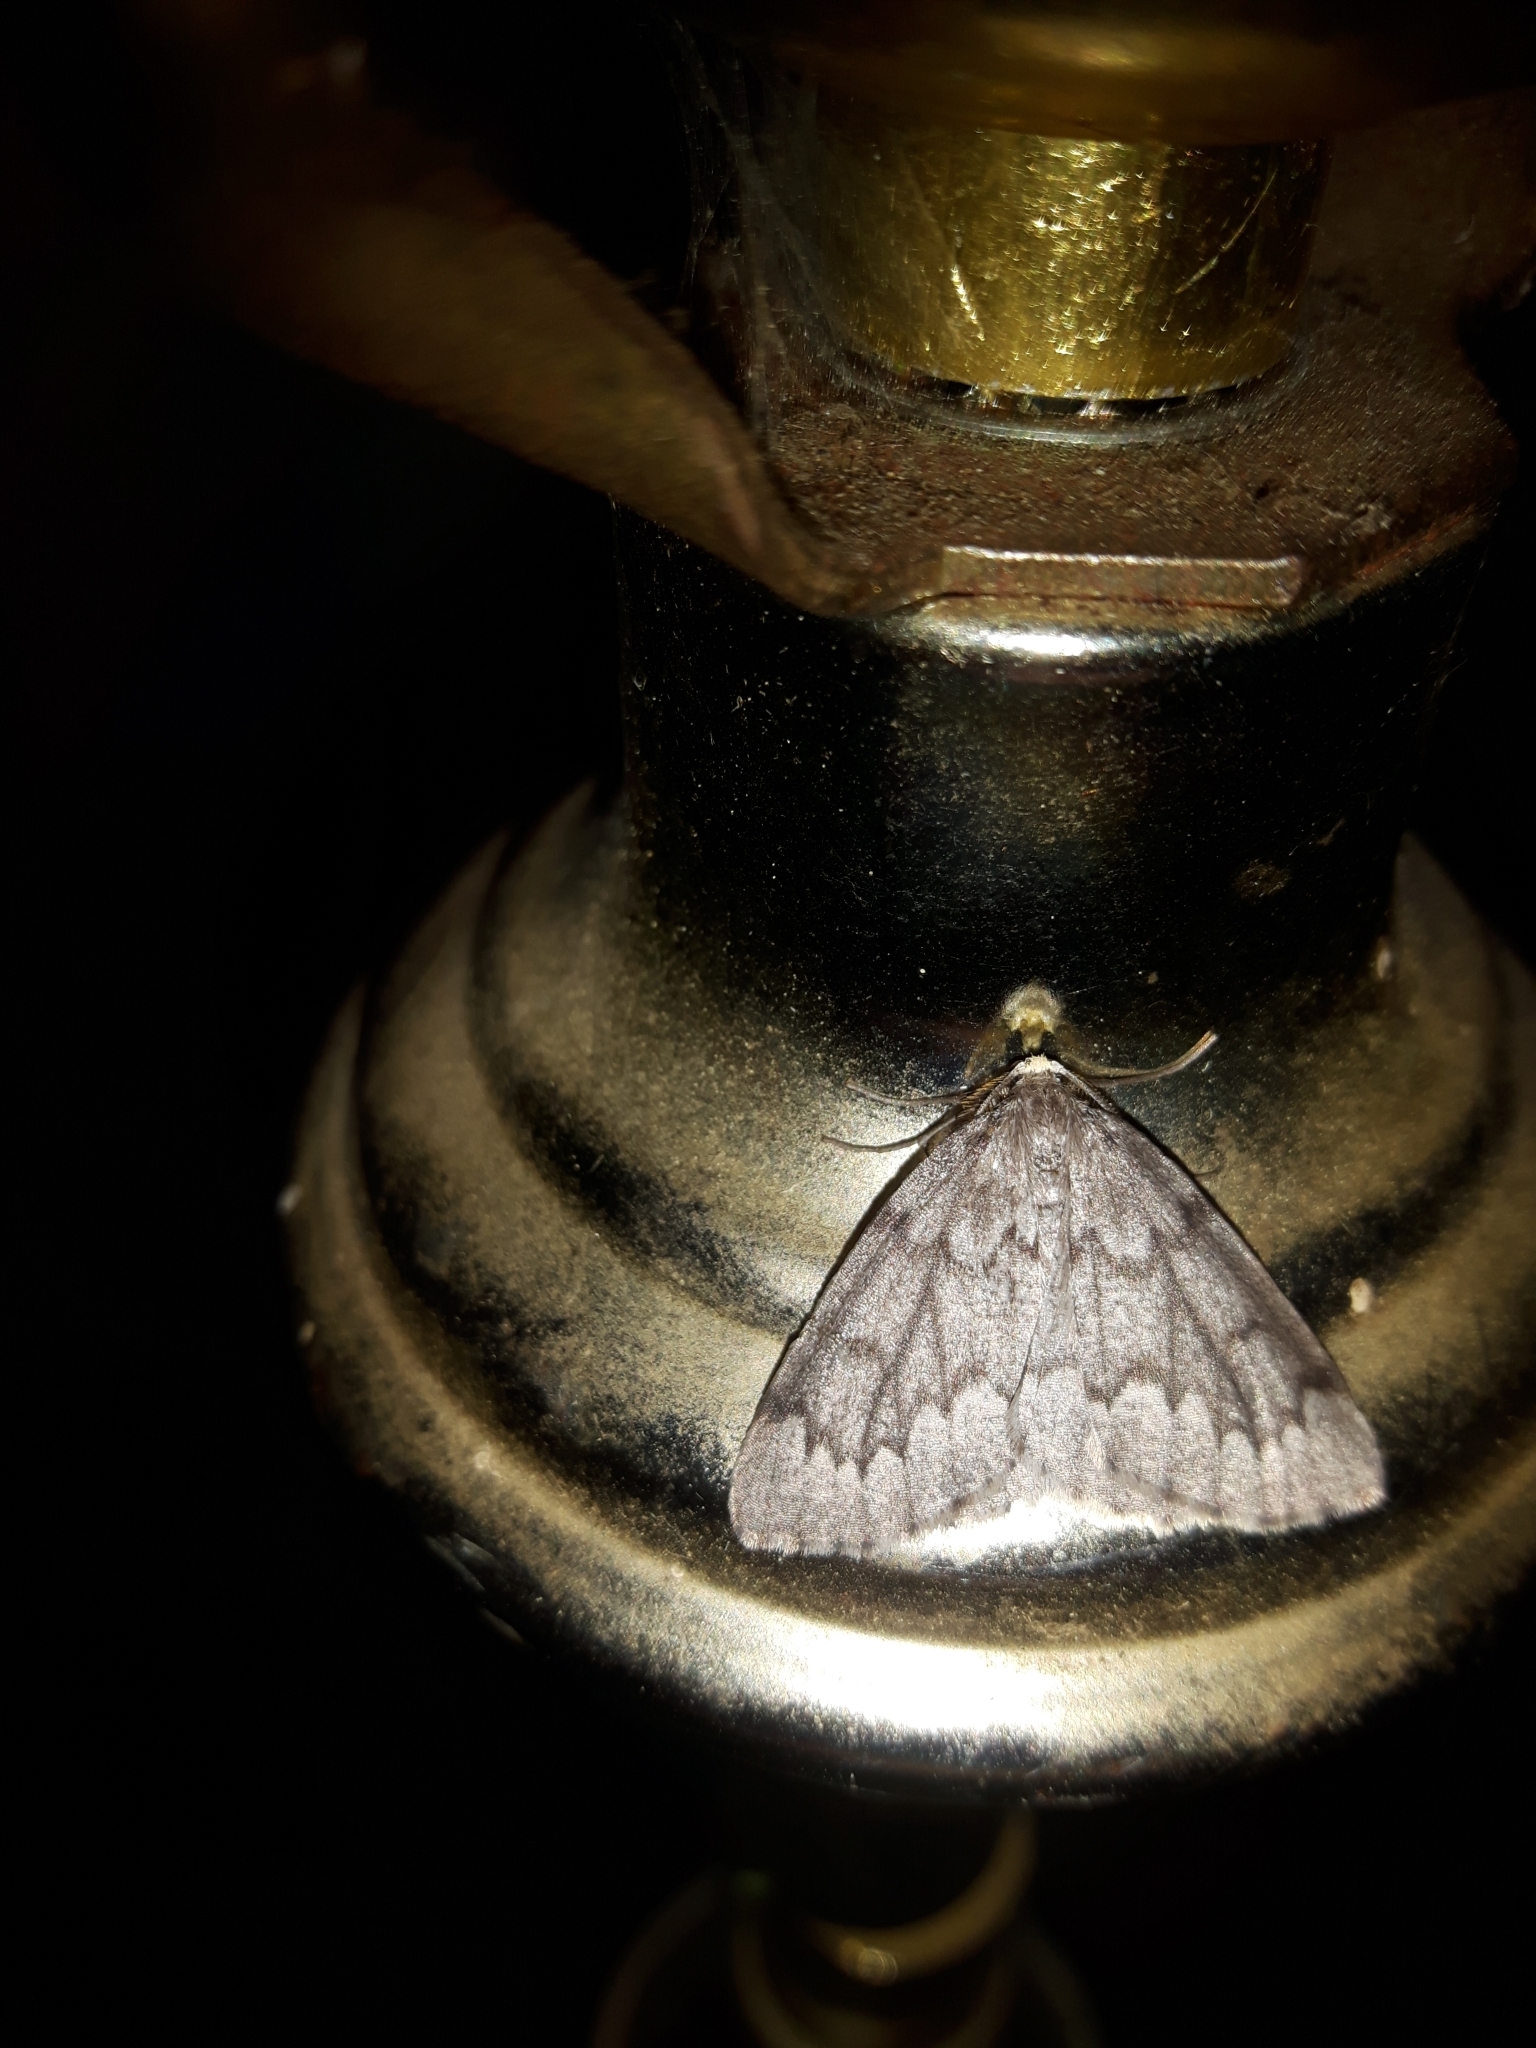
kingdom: Animalia
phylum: Arthropoda
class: Insecta
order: Lepidoptera
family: Geometridae
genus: Nepytia
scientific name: Nepytia canosaria
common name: False hemlock looper
